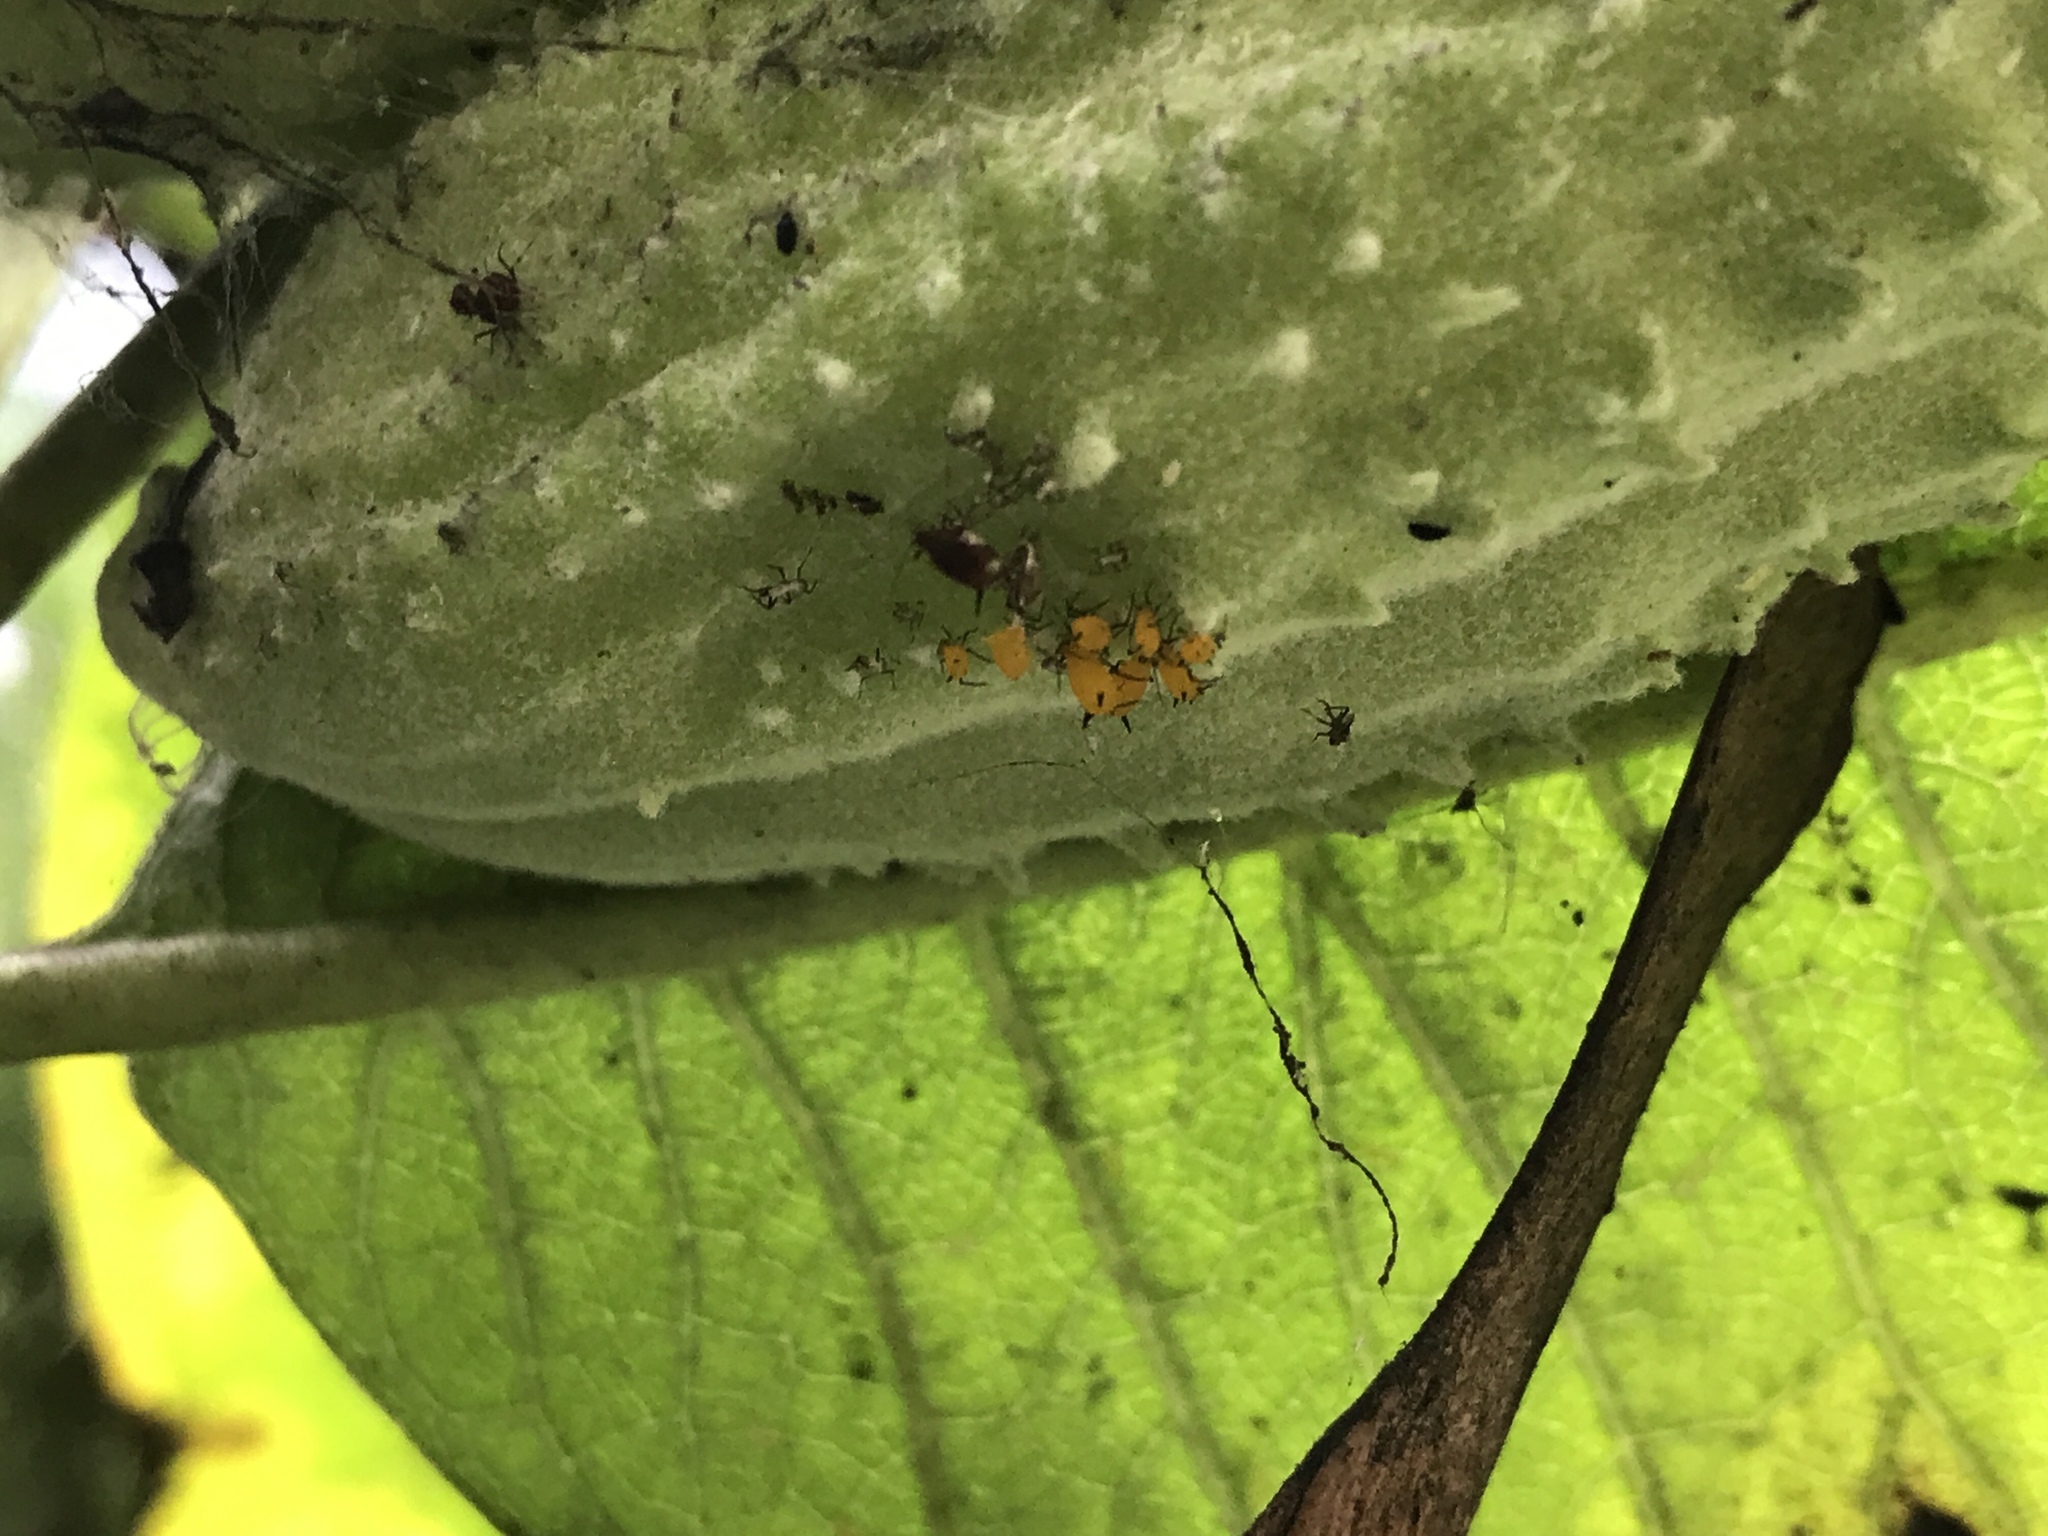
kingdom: Animalia
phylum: Arthropoda
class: Insecta
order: Hemiptera
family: Aphididae
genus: Aphis
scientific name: Aphis nerii
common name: Oleander aphid
